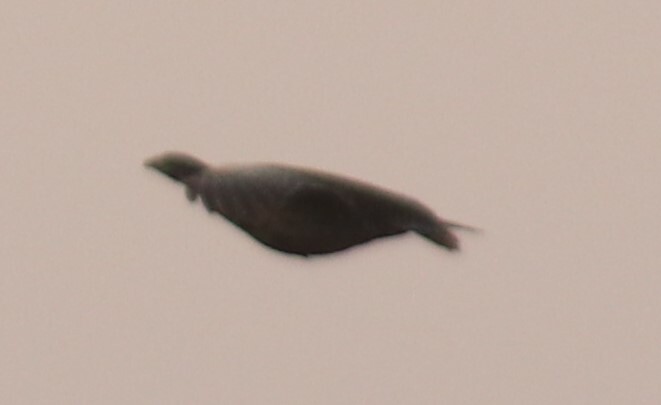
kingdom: Animalia
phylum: Chordata
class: Aves
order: Galliformes
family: Phasianidae
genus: Tympanuchus
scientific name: Tympanuchus phasianellus
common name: Sharp-tailed grouse
